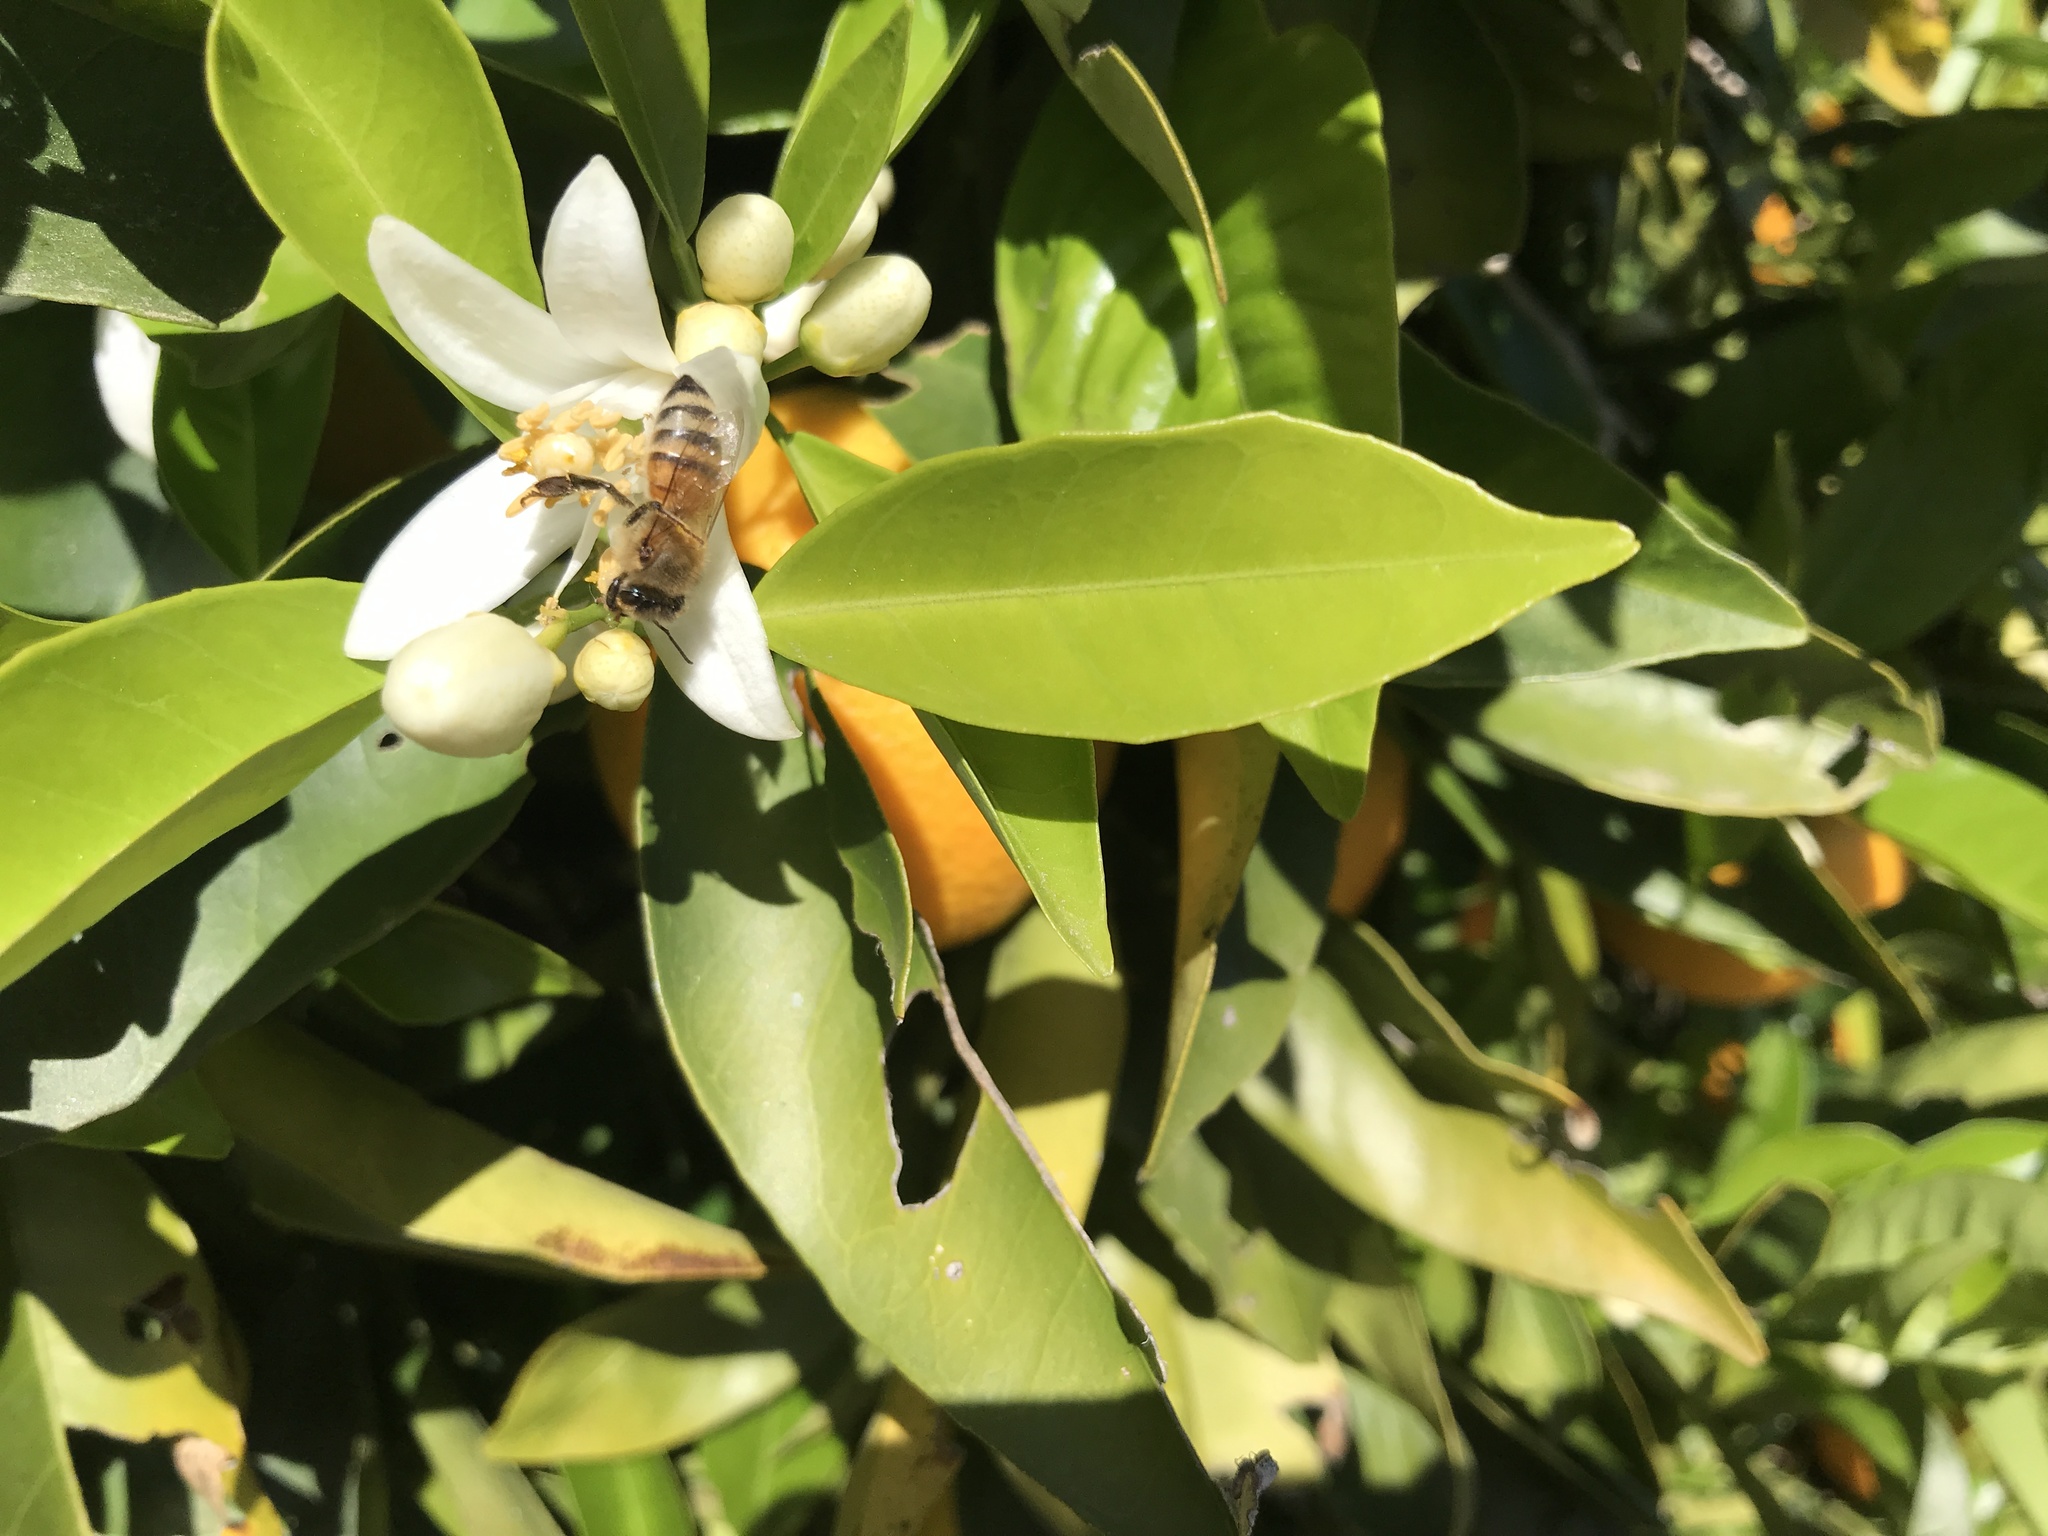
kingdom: Animalia
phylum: Arthropoda
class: Insecta
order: Hymenoptera
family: Apidae
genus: Apis
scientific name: Apis mellifera
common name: Honey bee
